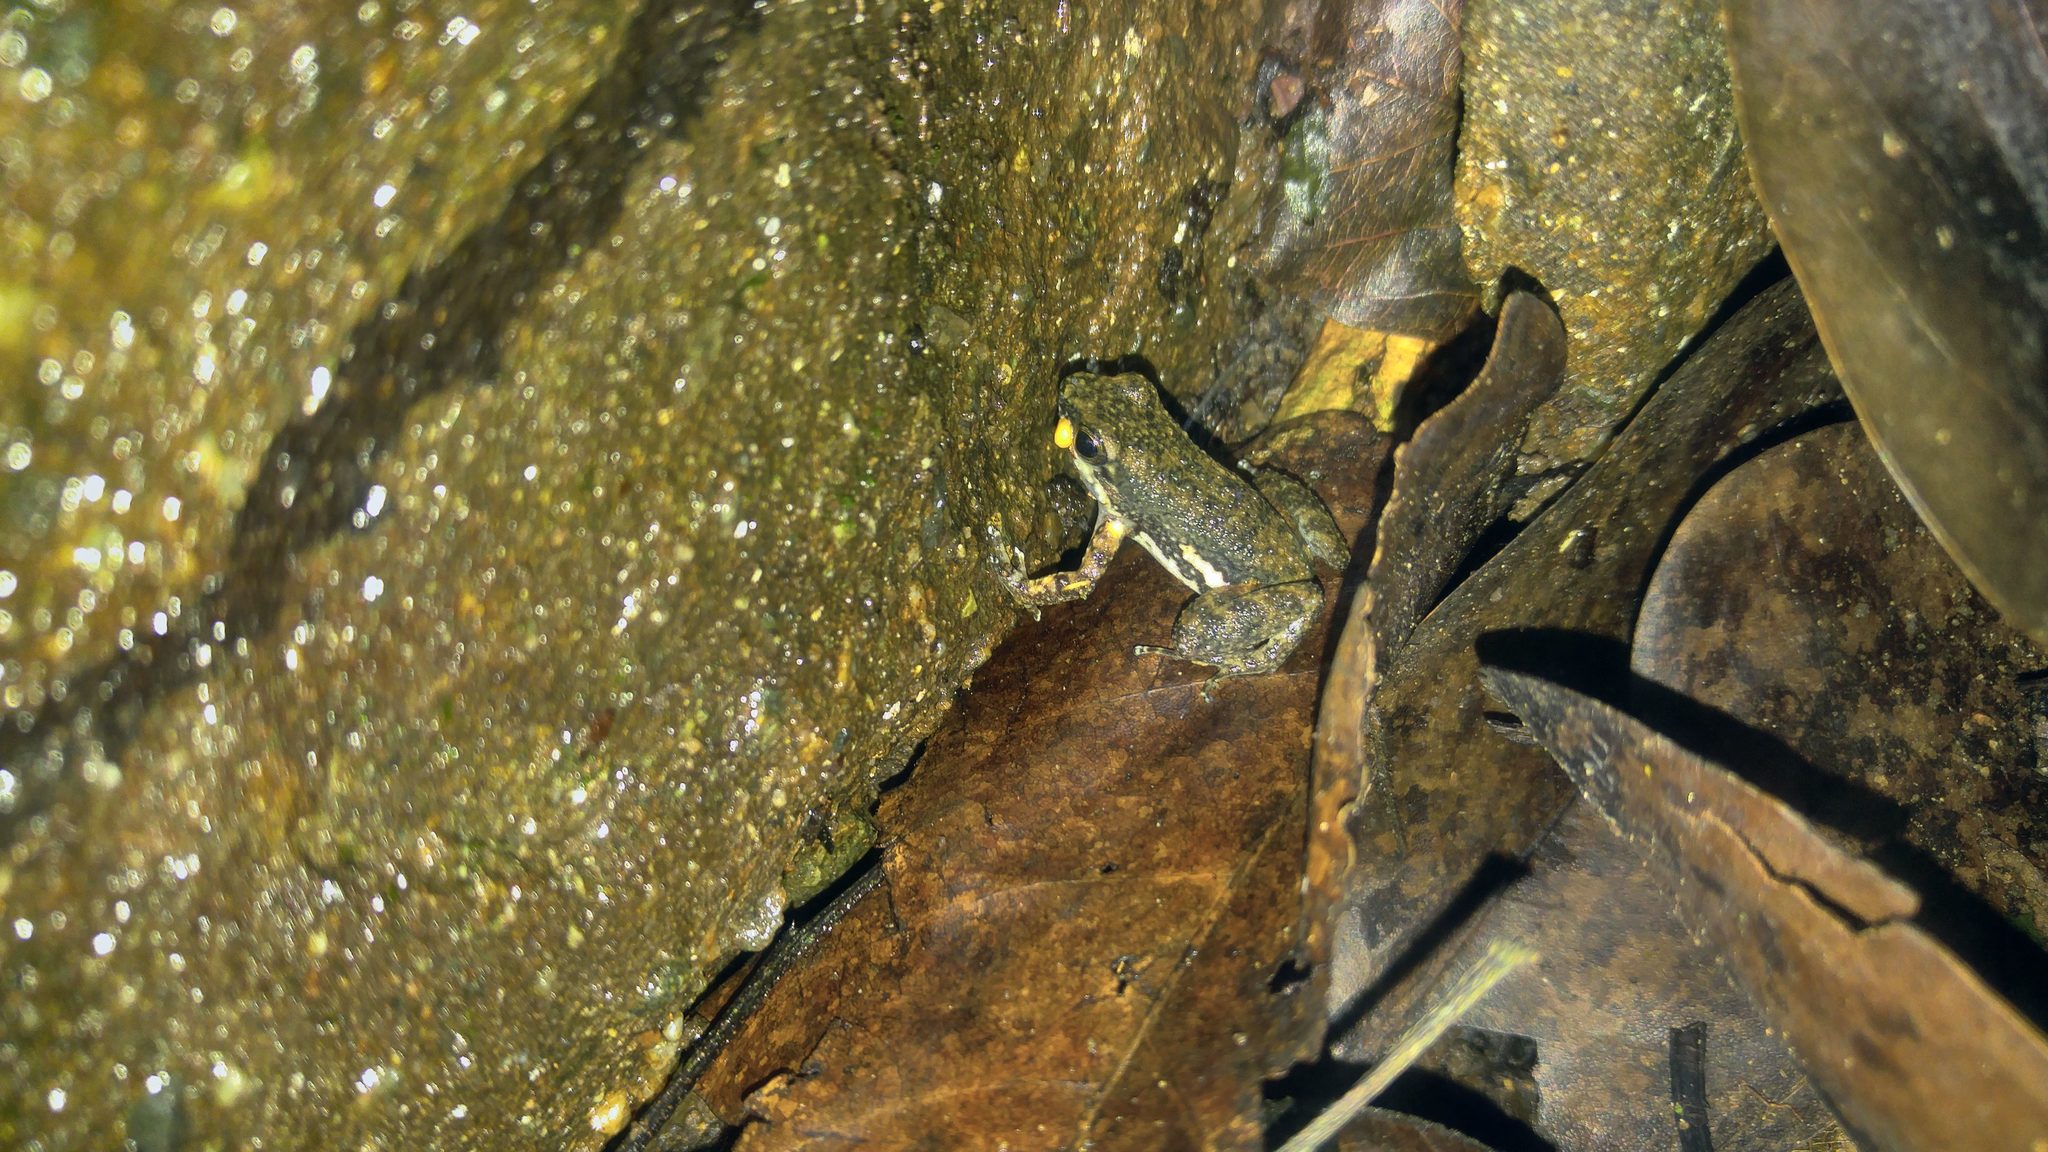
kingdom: Animalia
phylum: Chordata
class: Amphibia
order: Anura
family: Dendrobatidae
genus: Colostethus
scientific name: Colostethus inguinalis
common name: Common rocket frog
